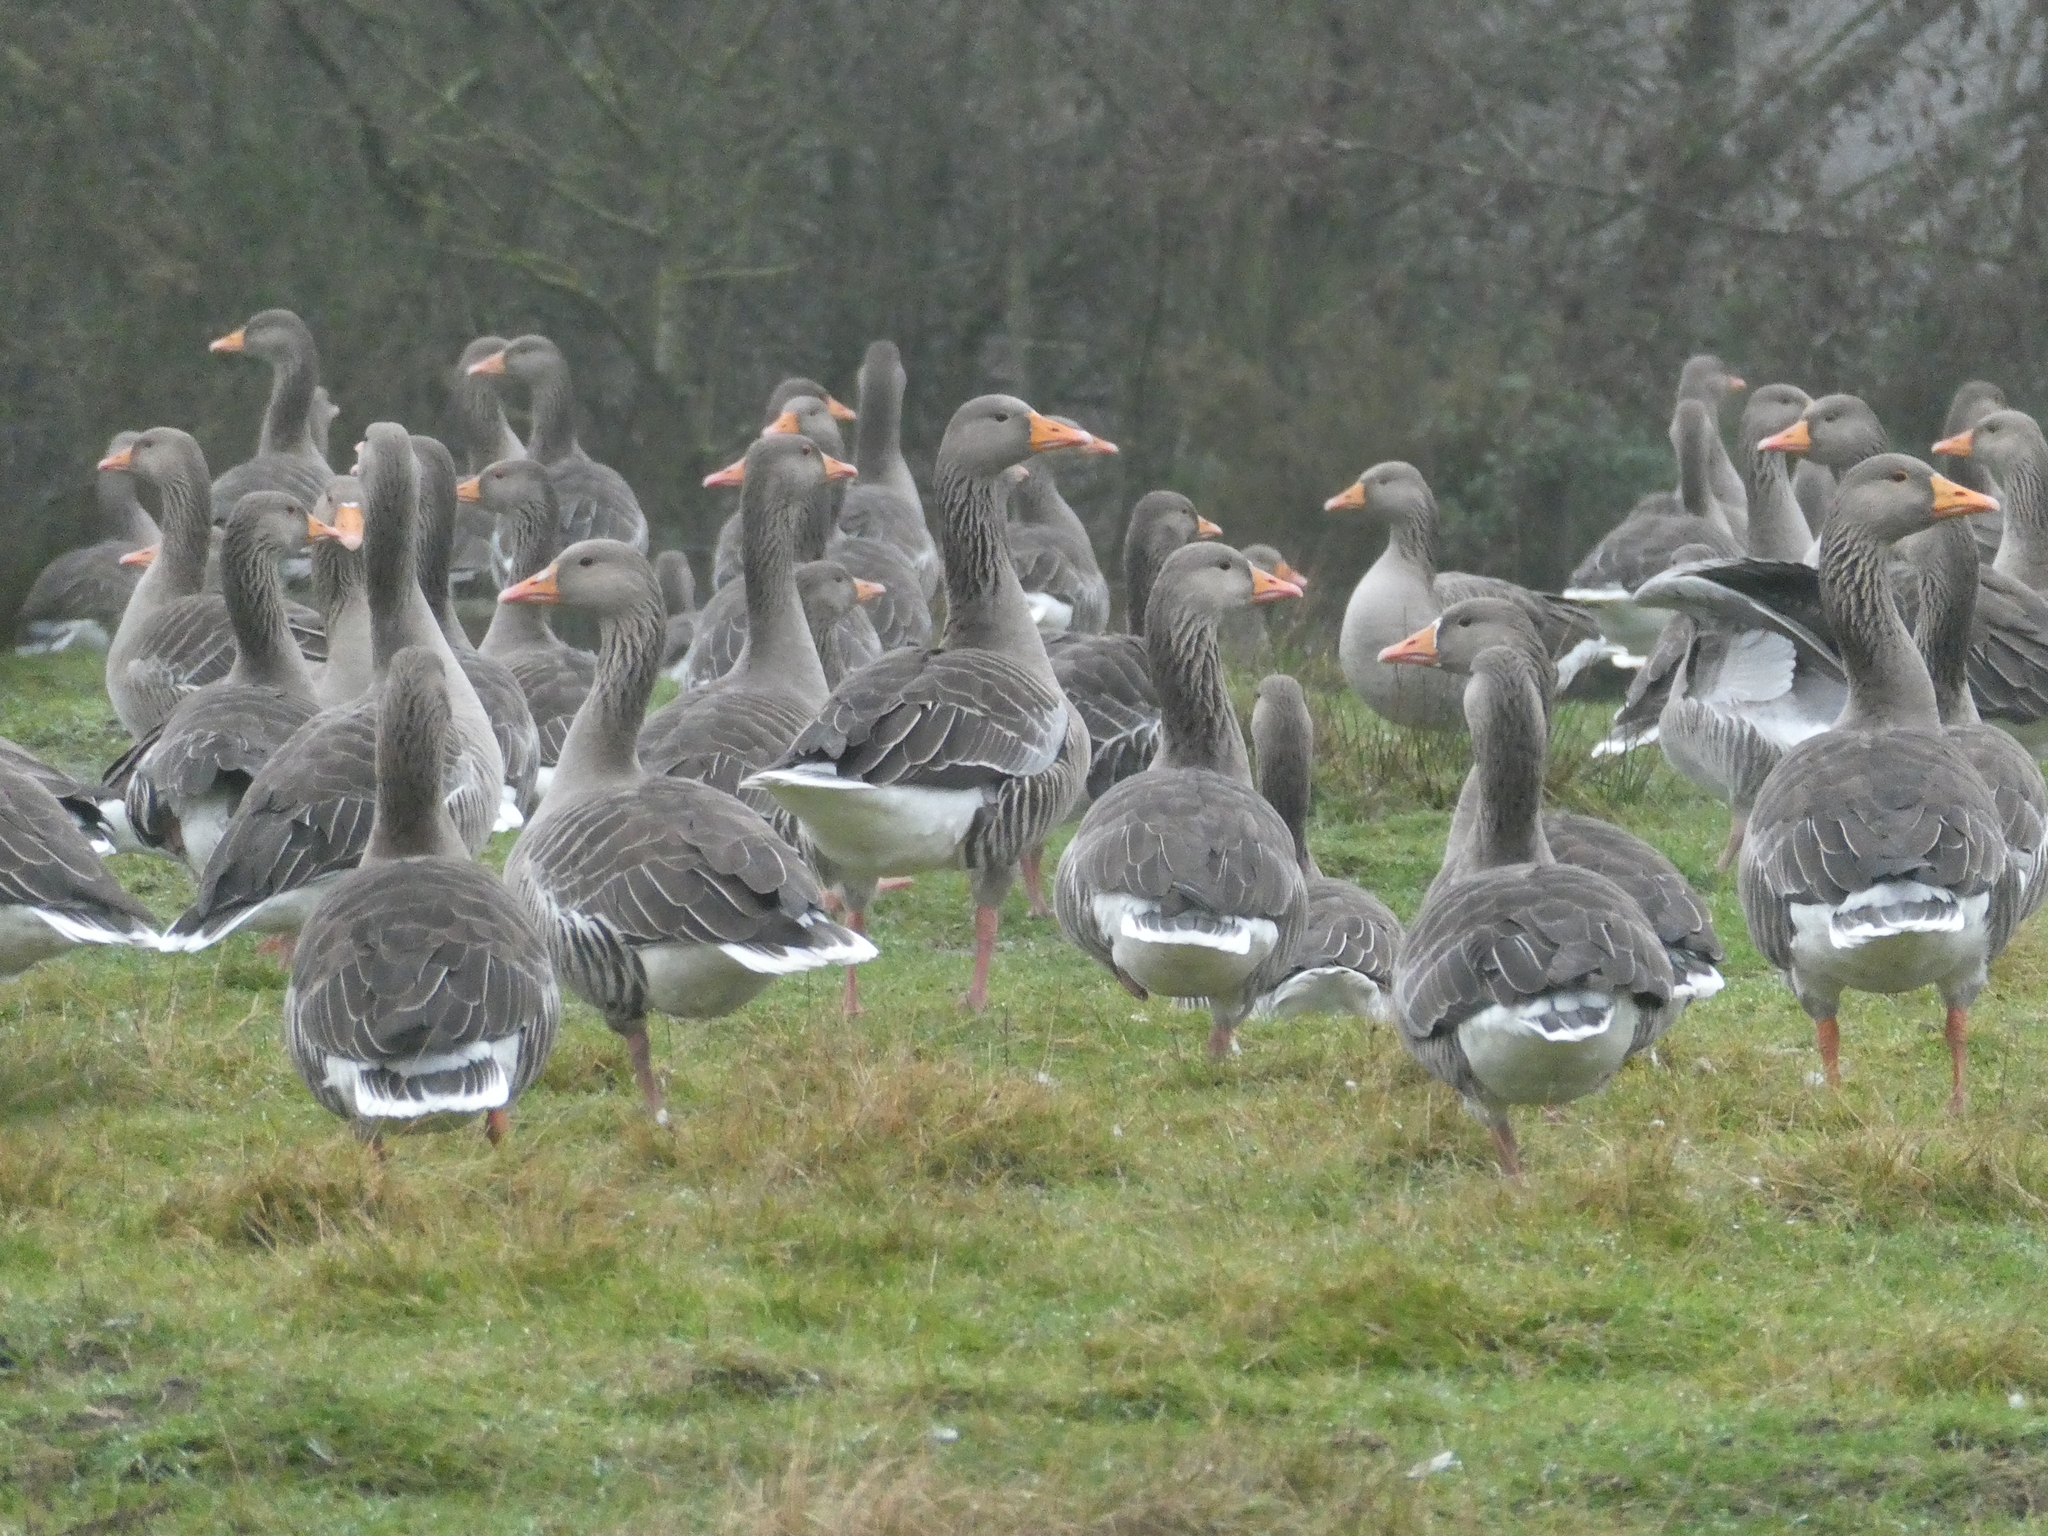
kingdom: Animalia
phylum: Chordata
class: Aves
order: Anseriformes
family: Anatidae
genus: Anser
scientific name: Anser anser
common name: Greylag goose
